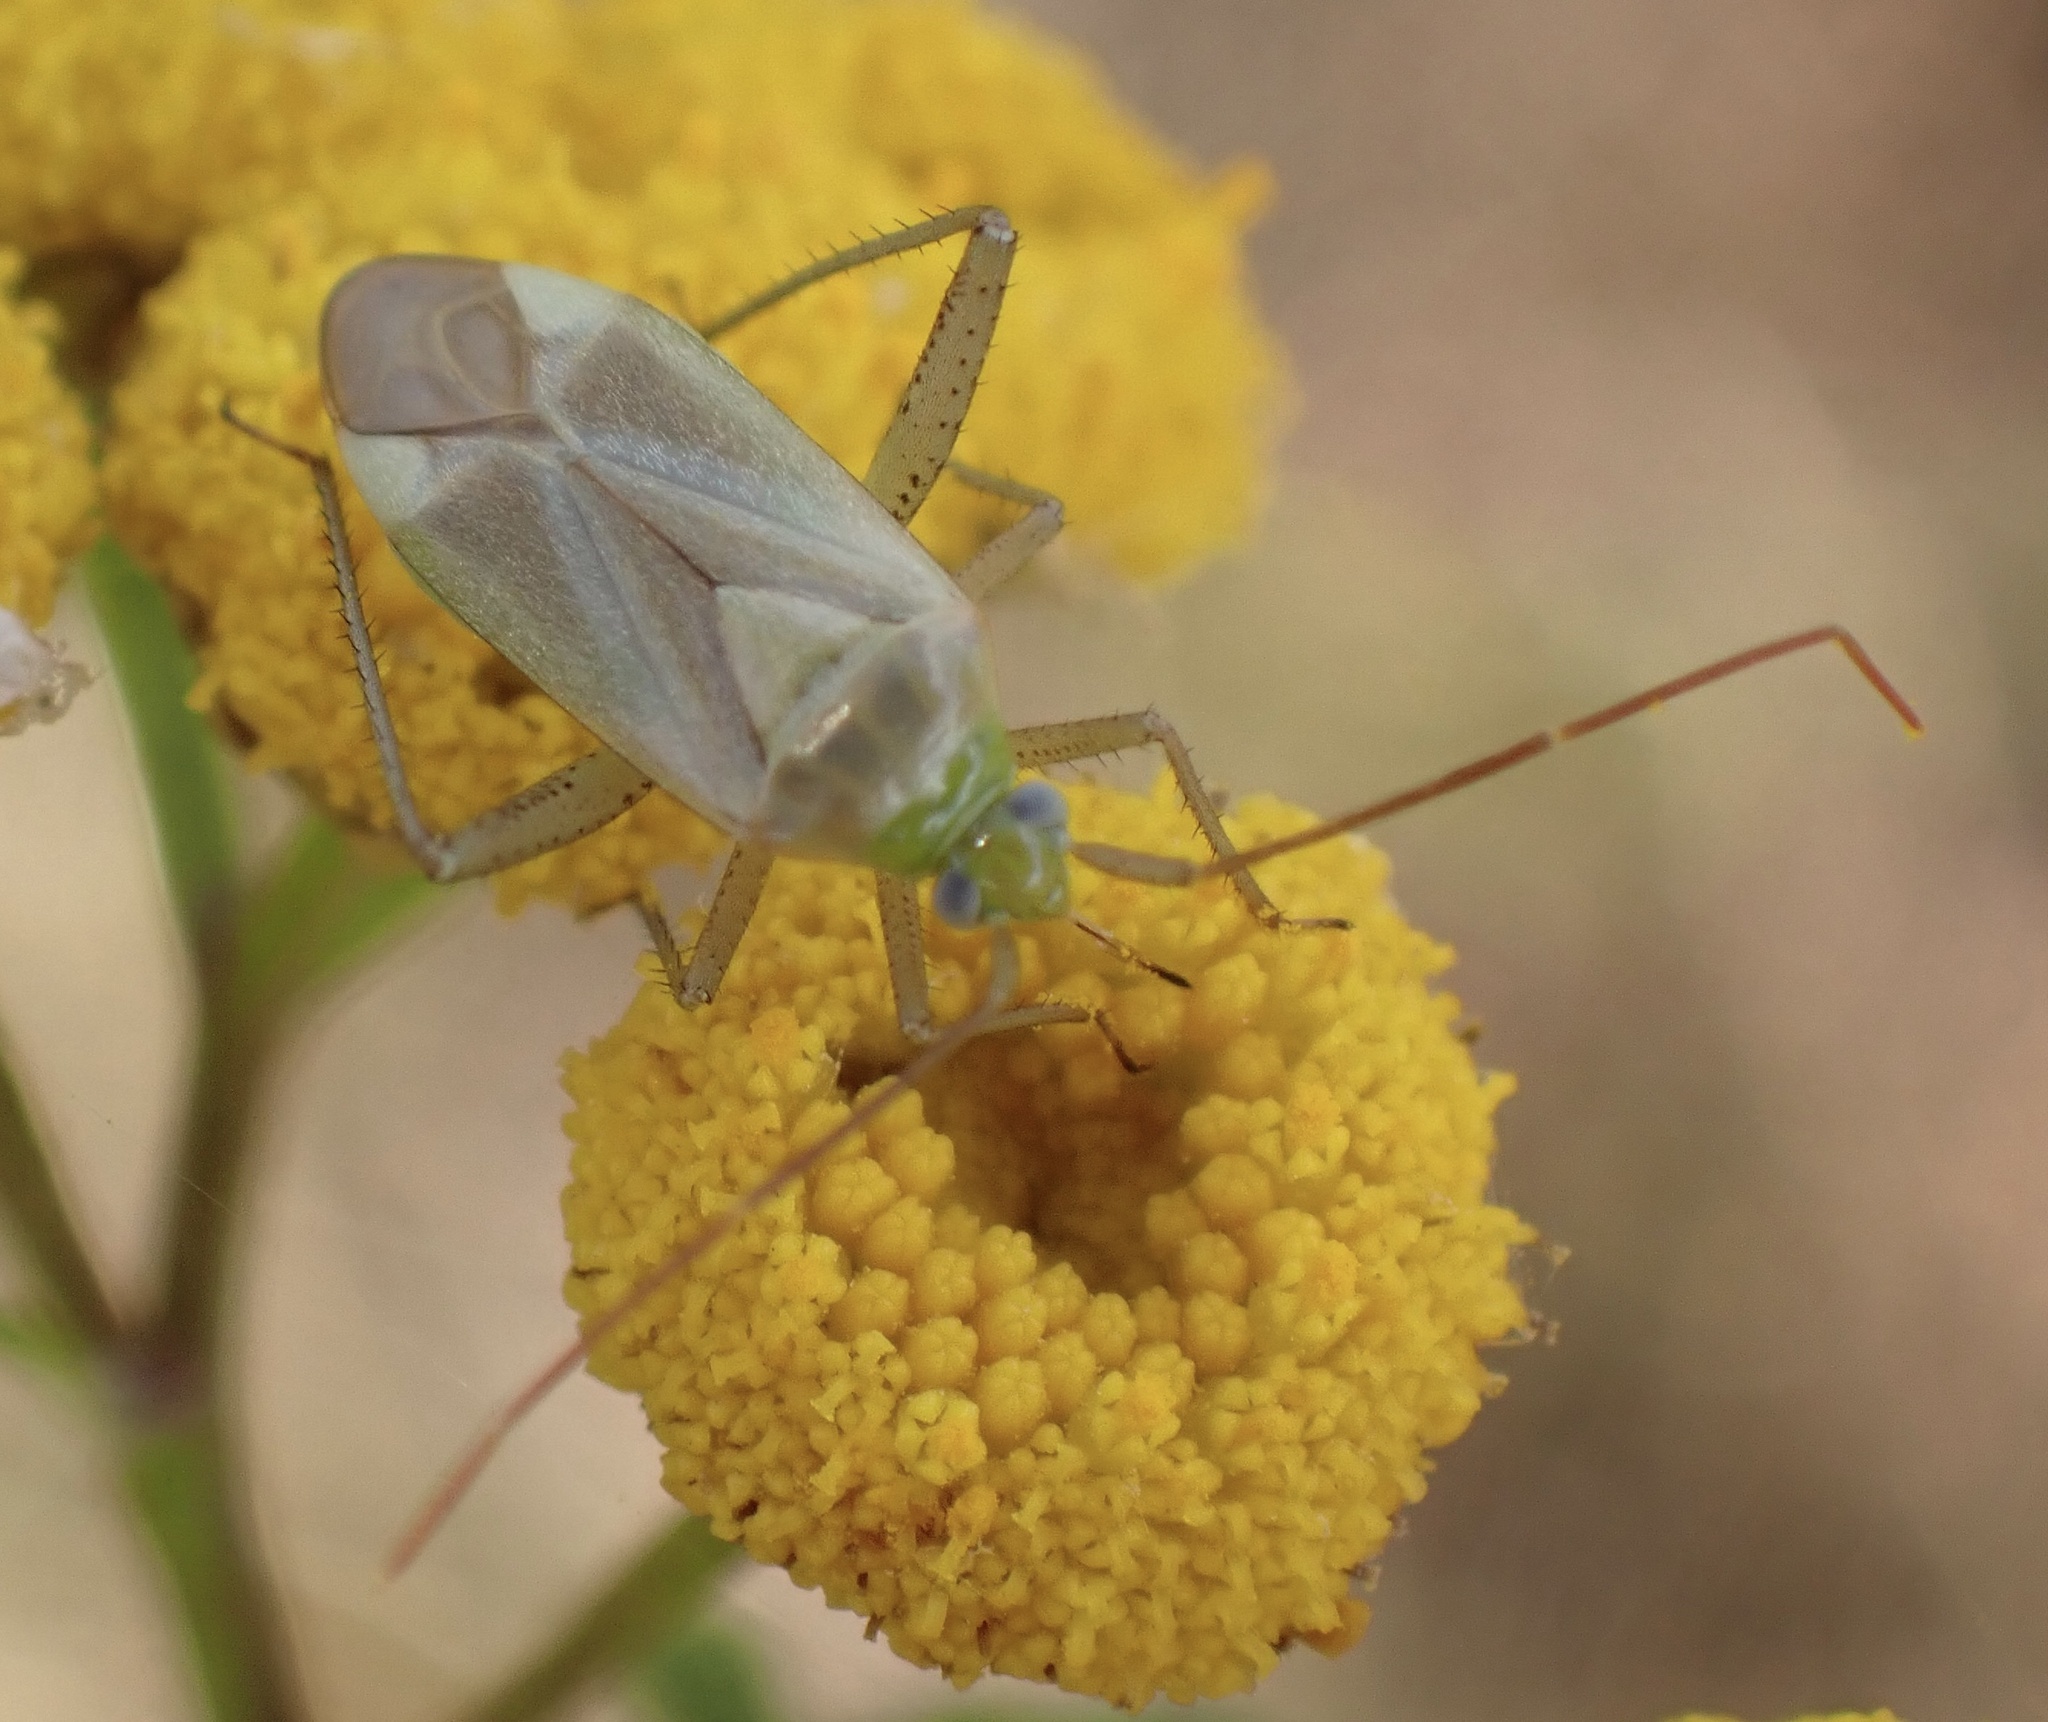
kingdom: Animalia
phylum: Arthropoda
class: Insecta
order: Hemiptera
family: Miridae
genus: Adelphocoris
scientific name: Adelphocoris lineolatus
